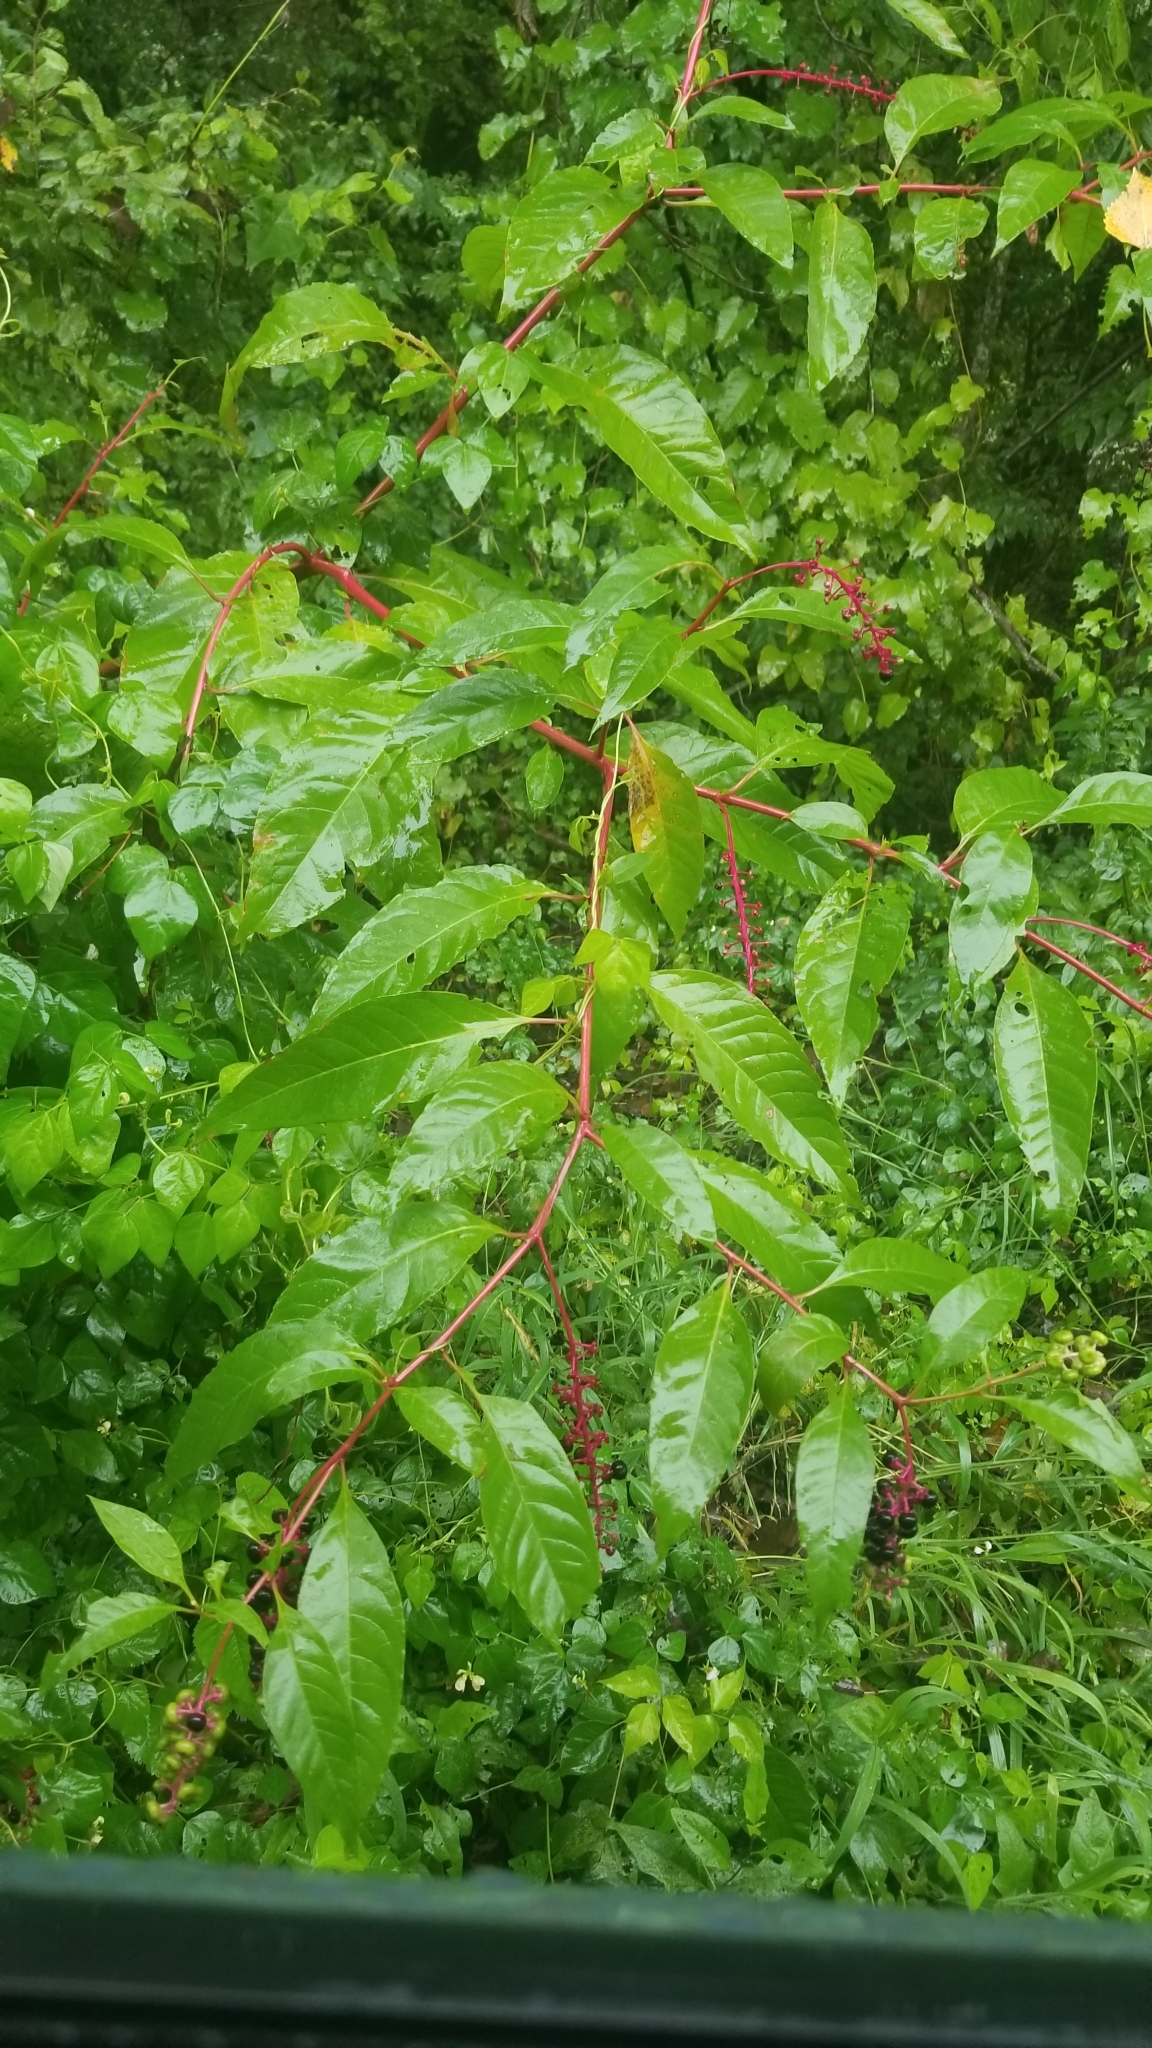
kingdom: Plantae
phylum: Tracheophyta
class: Magnoliopsida
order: Caryophyllales
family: Phytolaccaceae
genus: Phytolacca
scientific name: Phytolacca americana
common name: American pokeweed
